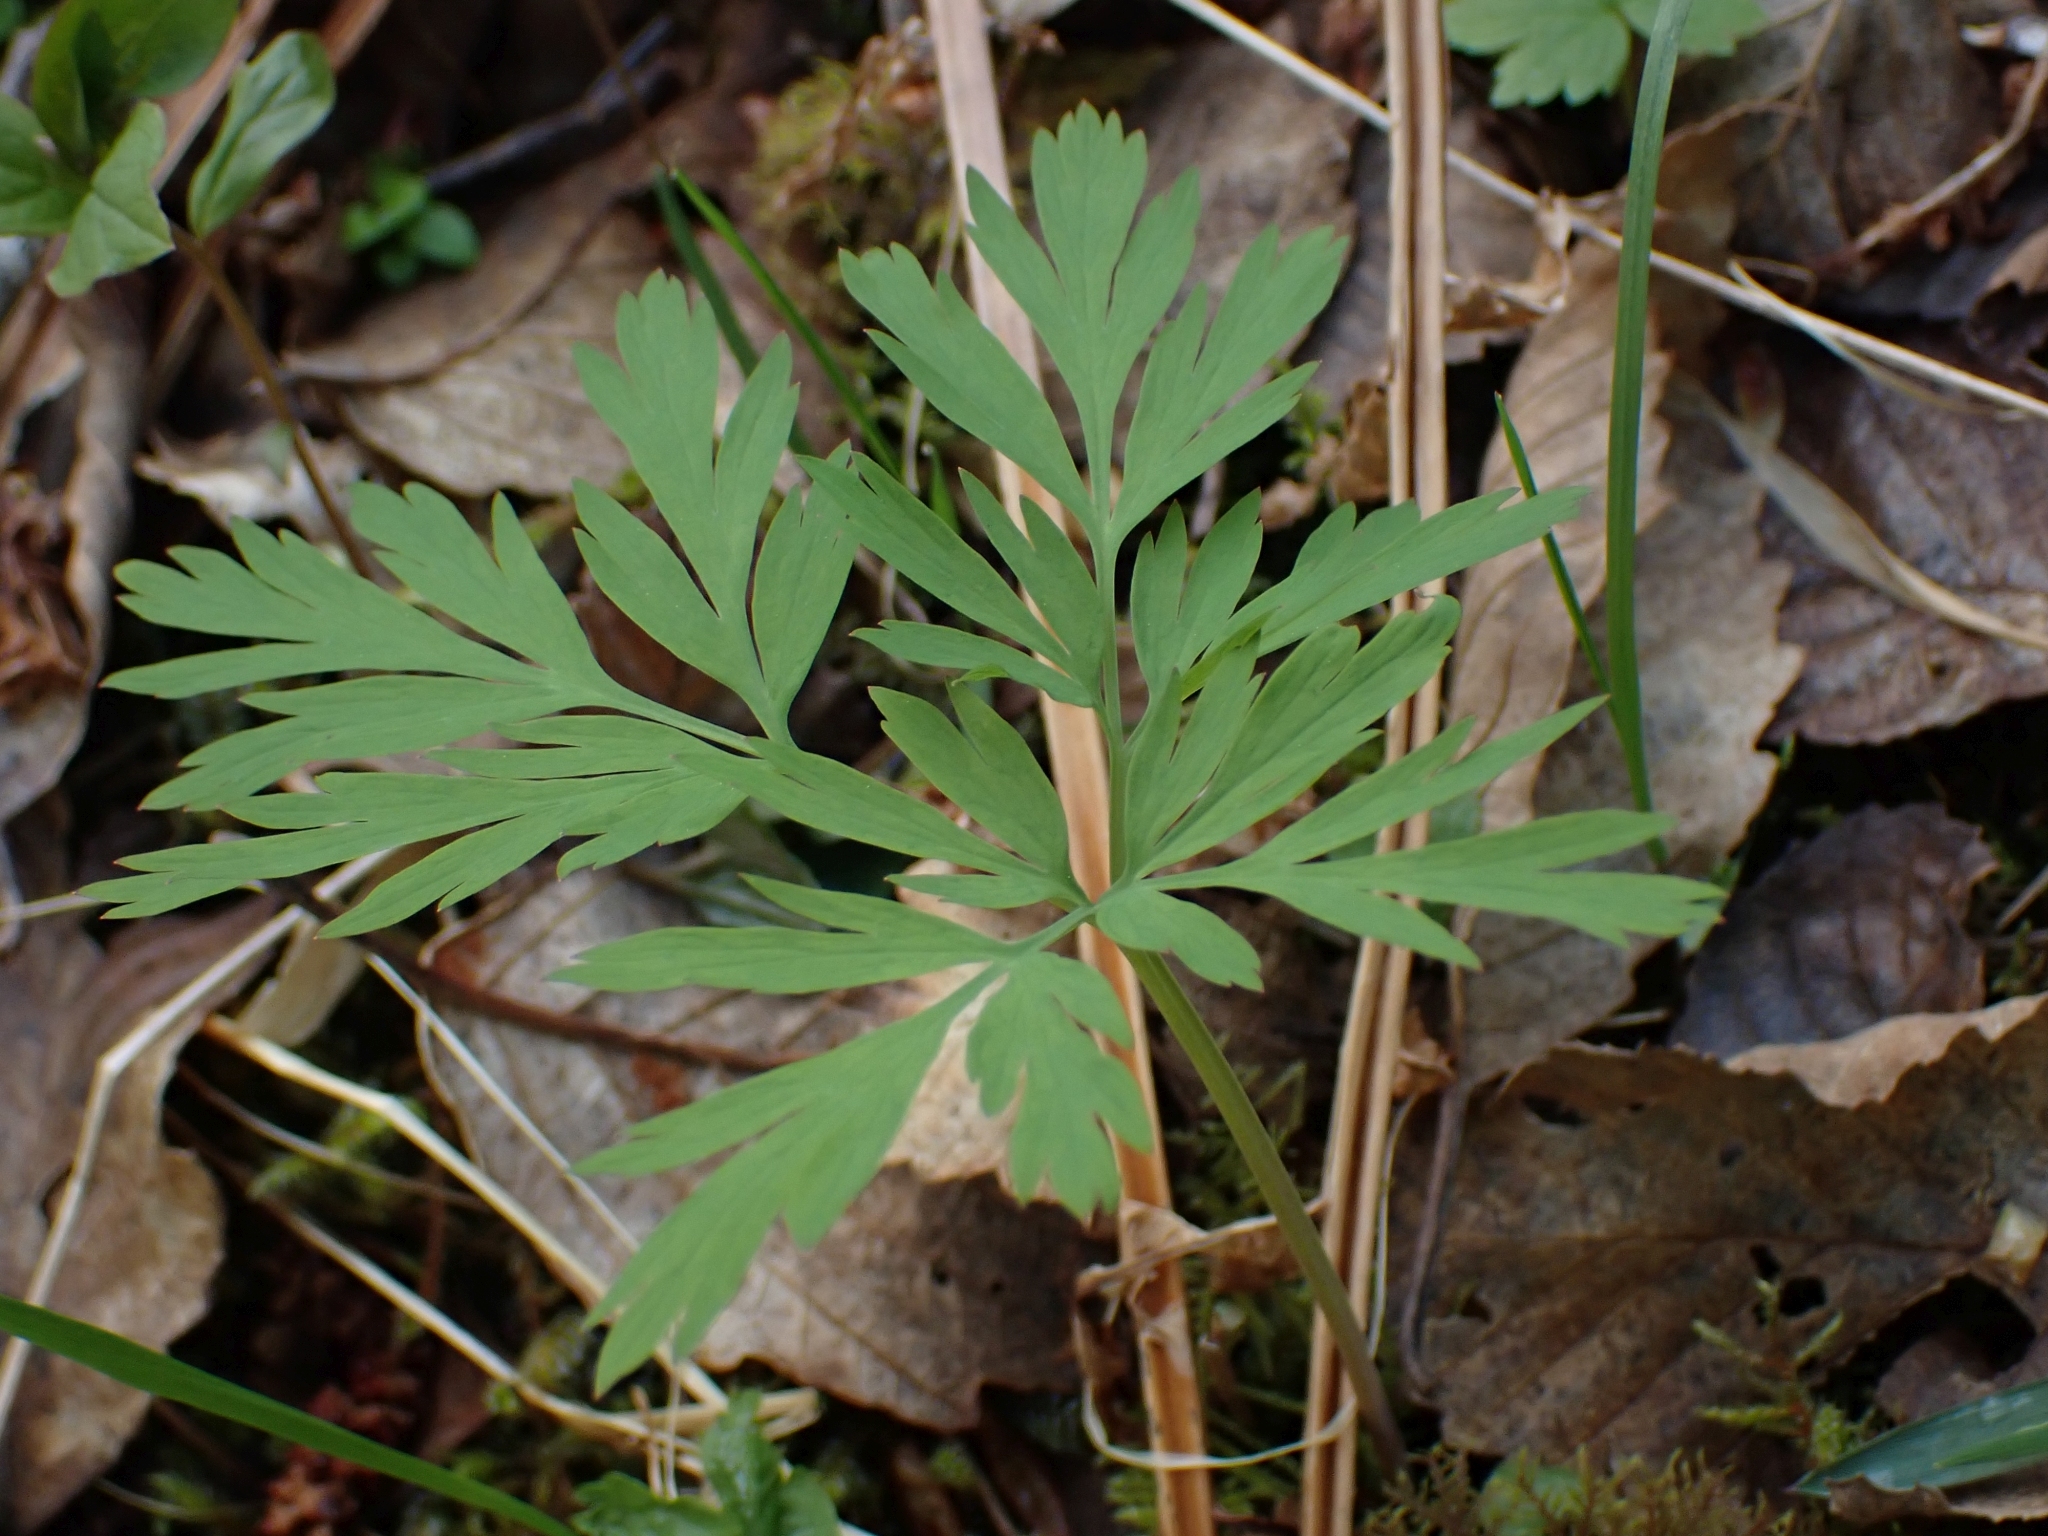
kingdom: Plantae
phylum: Tracheophyta
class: Magnoliopsida
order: Ranunculales
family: Papaveraceae
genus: Dicentra
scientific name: Dicentra formosa
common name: Bleeding-heart
